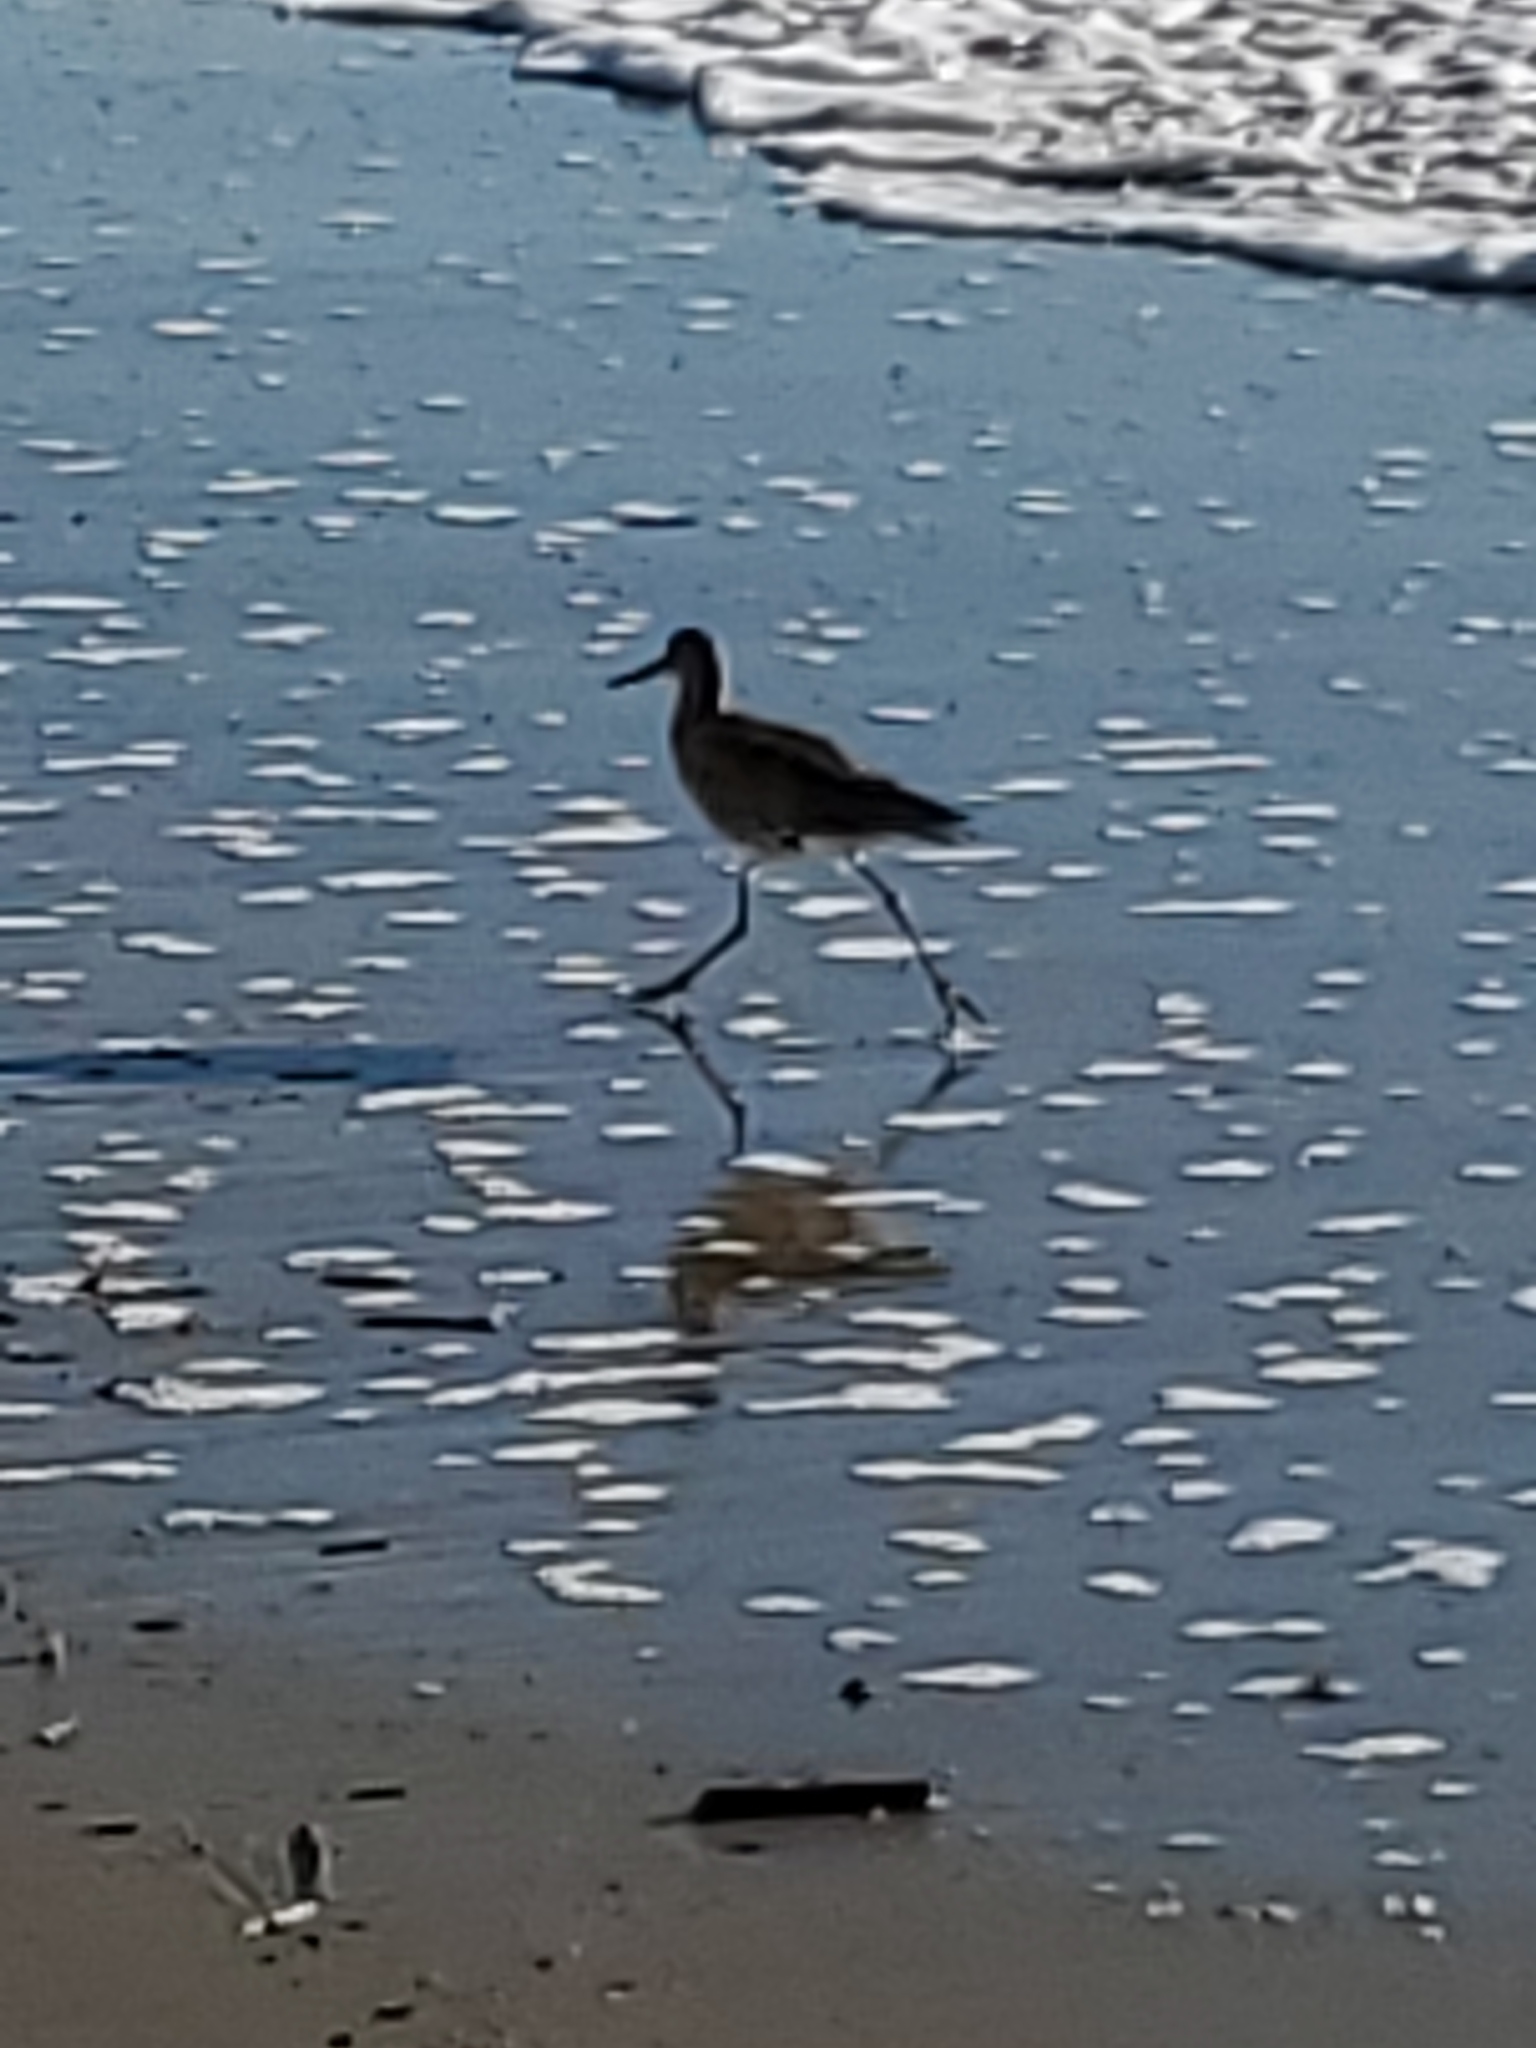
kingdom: Animalia
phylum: Chordata
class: Aves
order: Charadriiformes
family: Scolopacidae
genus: Tringa
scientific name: Tringa semipalmata
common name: Willet
